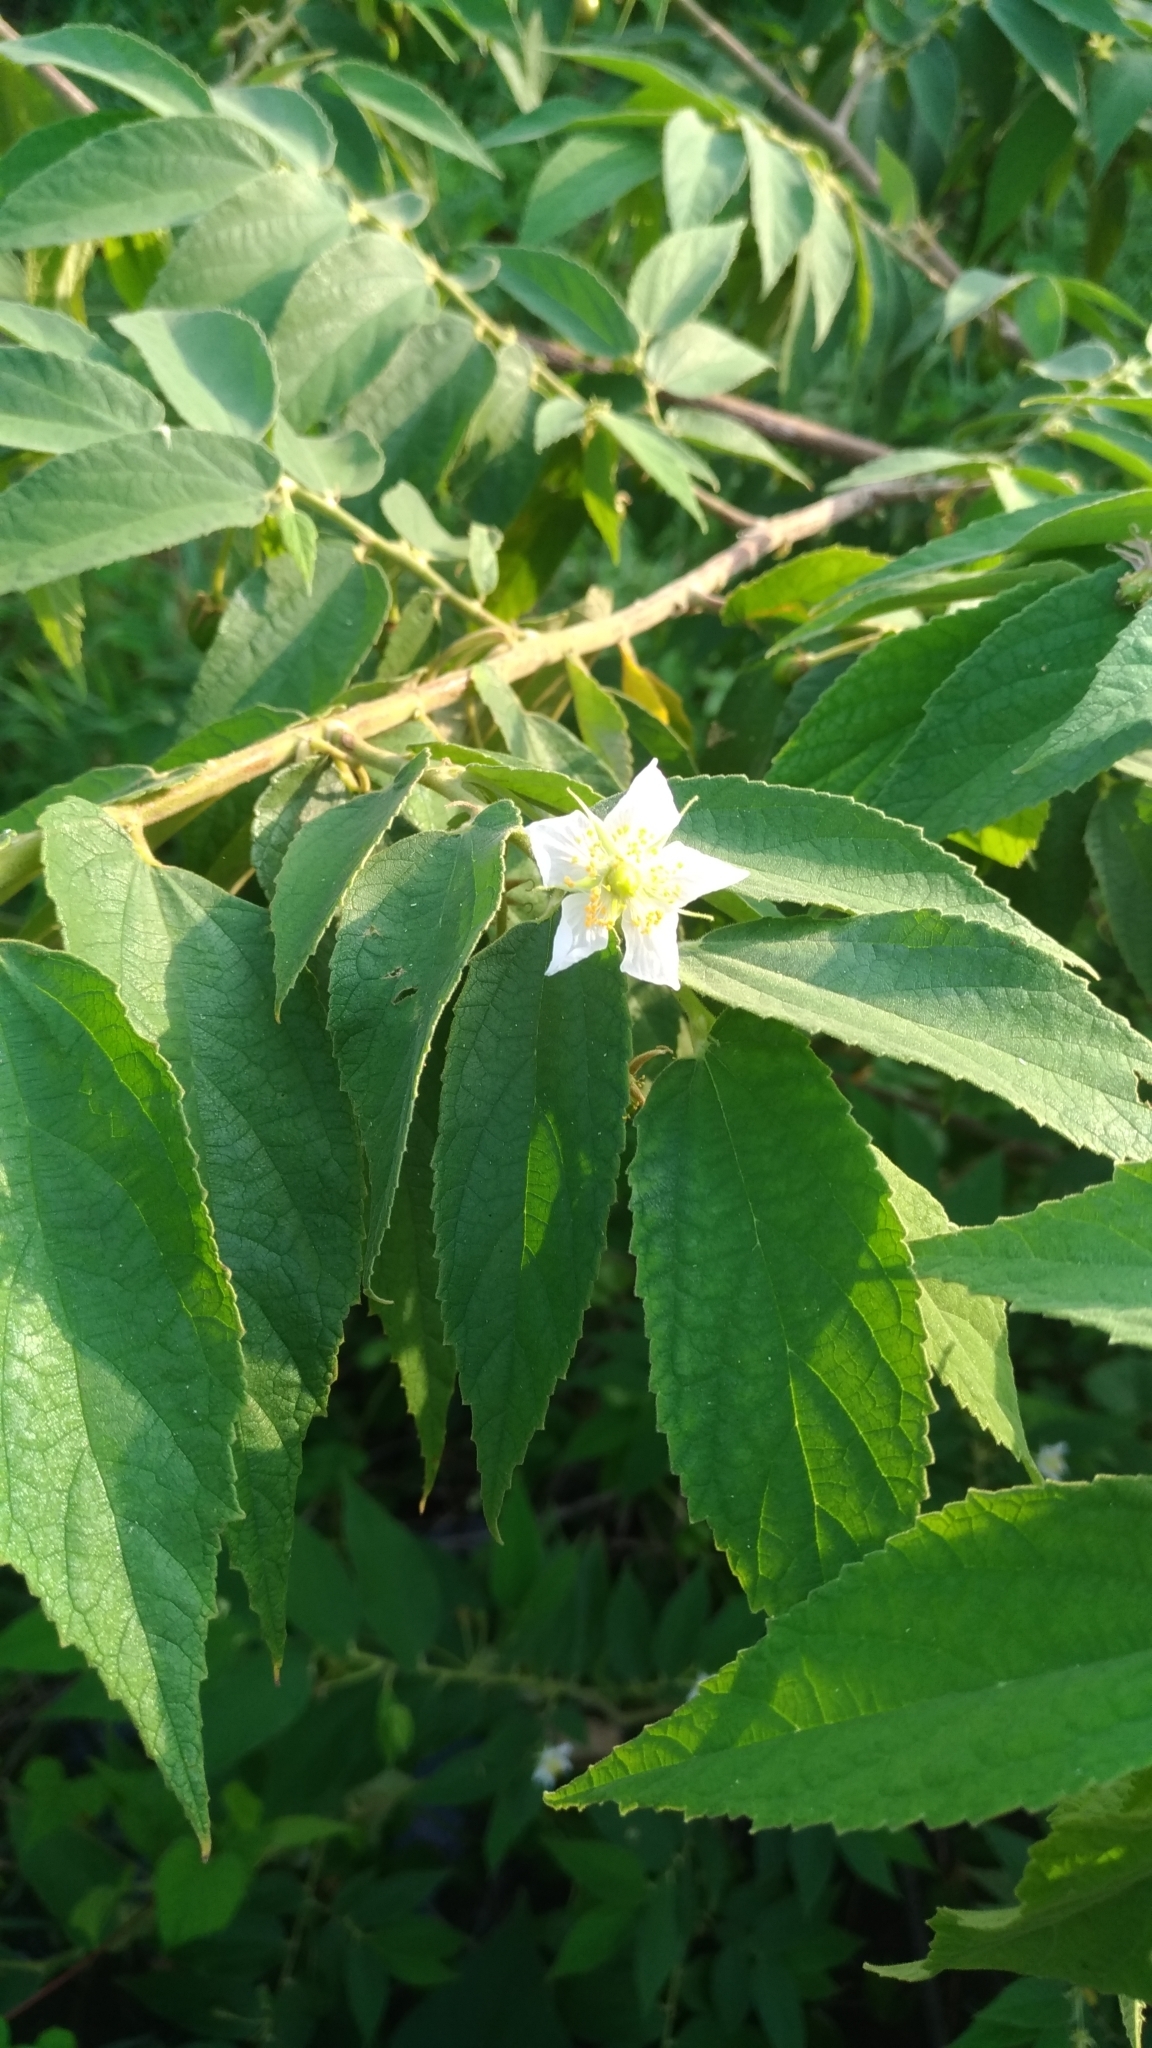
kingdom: Plantae
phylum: Tracheophyta
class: Magnoliopsida
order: Malvales
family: Muntingiaceae
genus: Muntingia
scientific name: Muntingia calabura
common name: Strawberrytree
